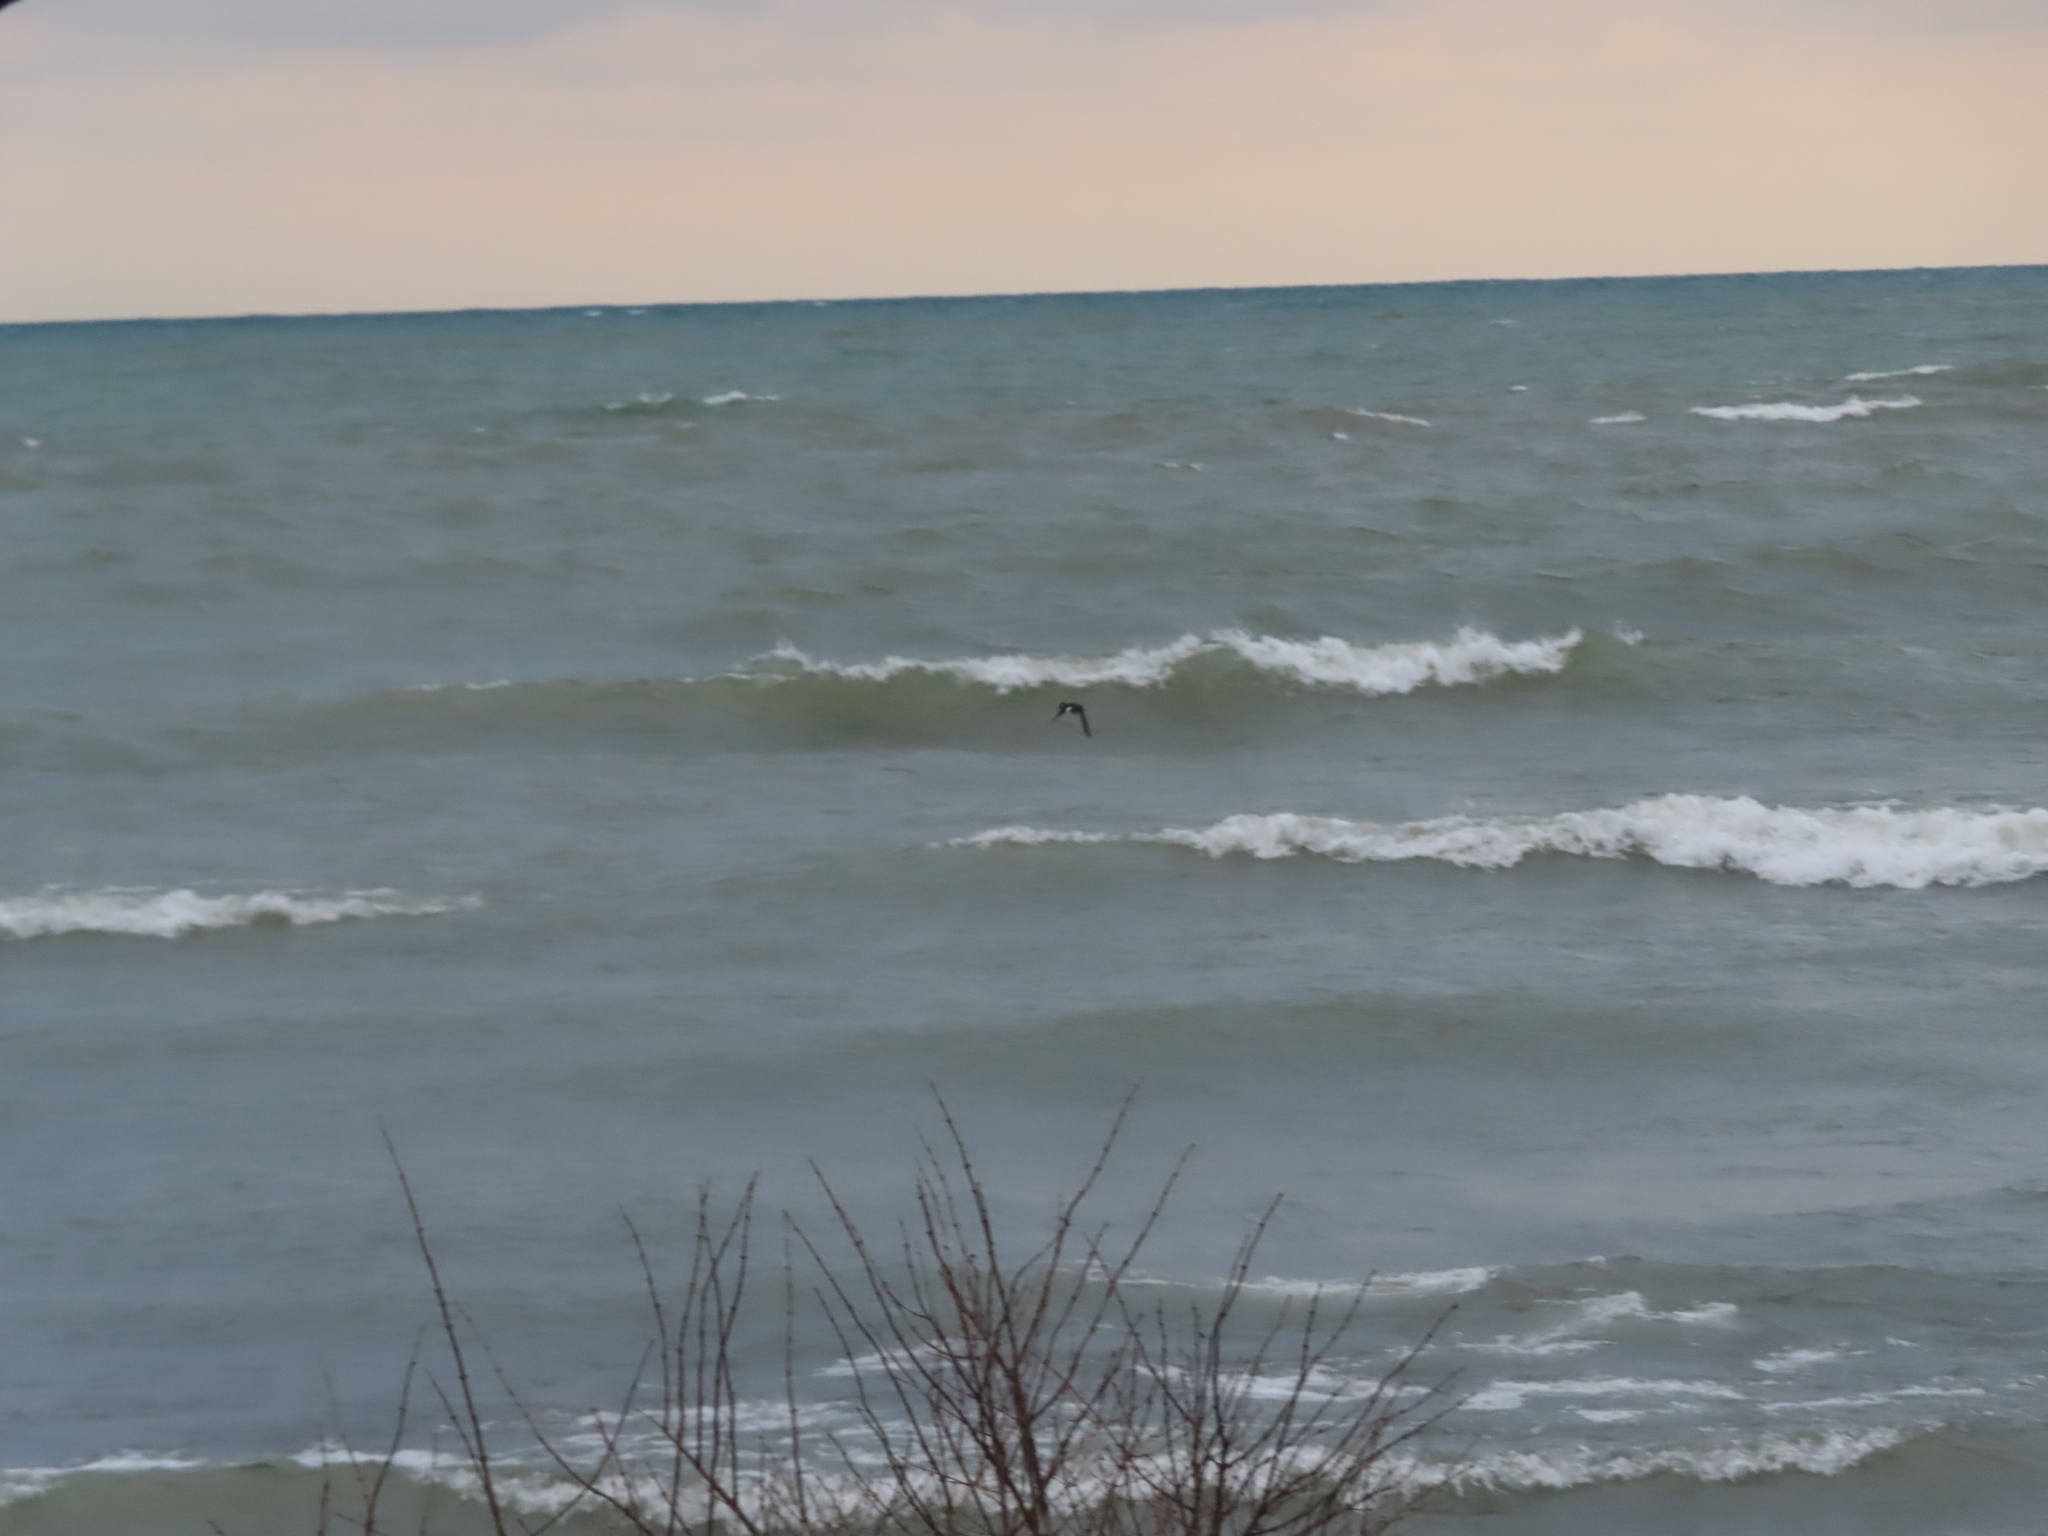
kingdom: Animalia
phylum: Chordata
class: Aves
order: Anseriformes
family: Anatidae
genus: Bucephala
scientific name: Bucephala albeola
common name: Bufflehead
